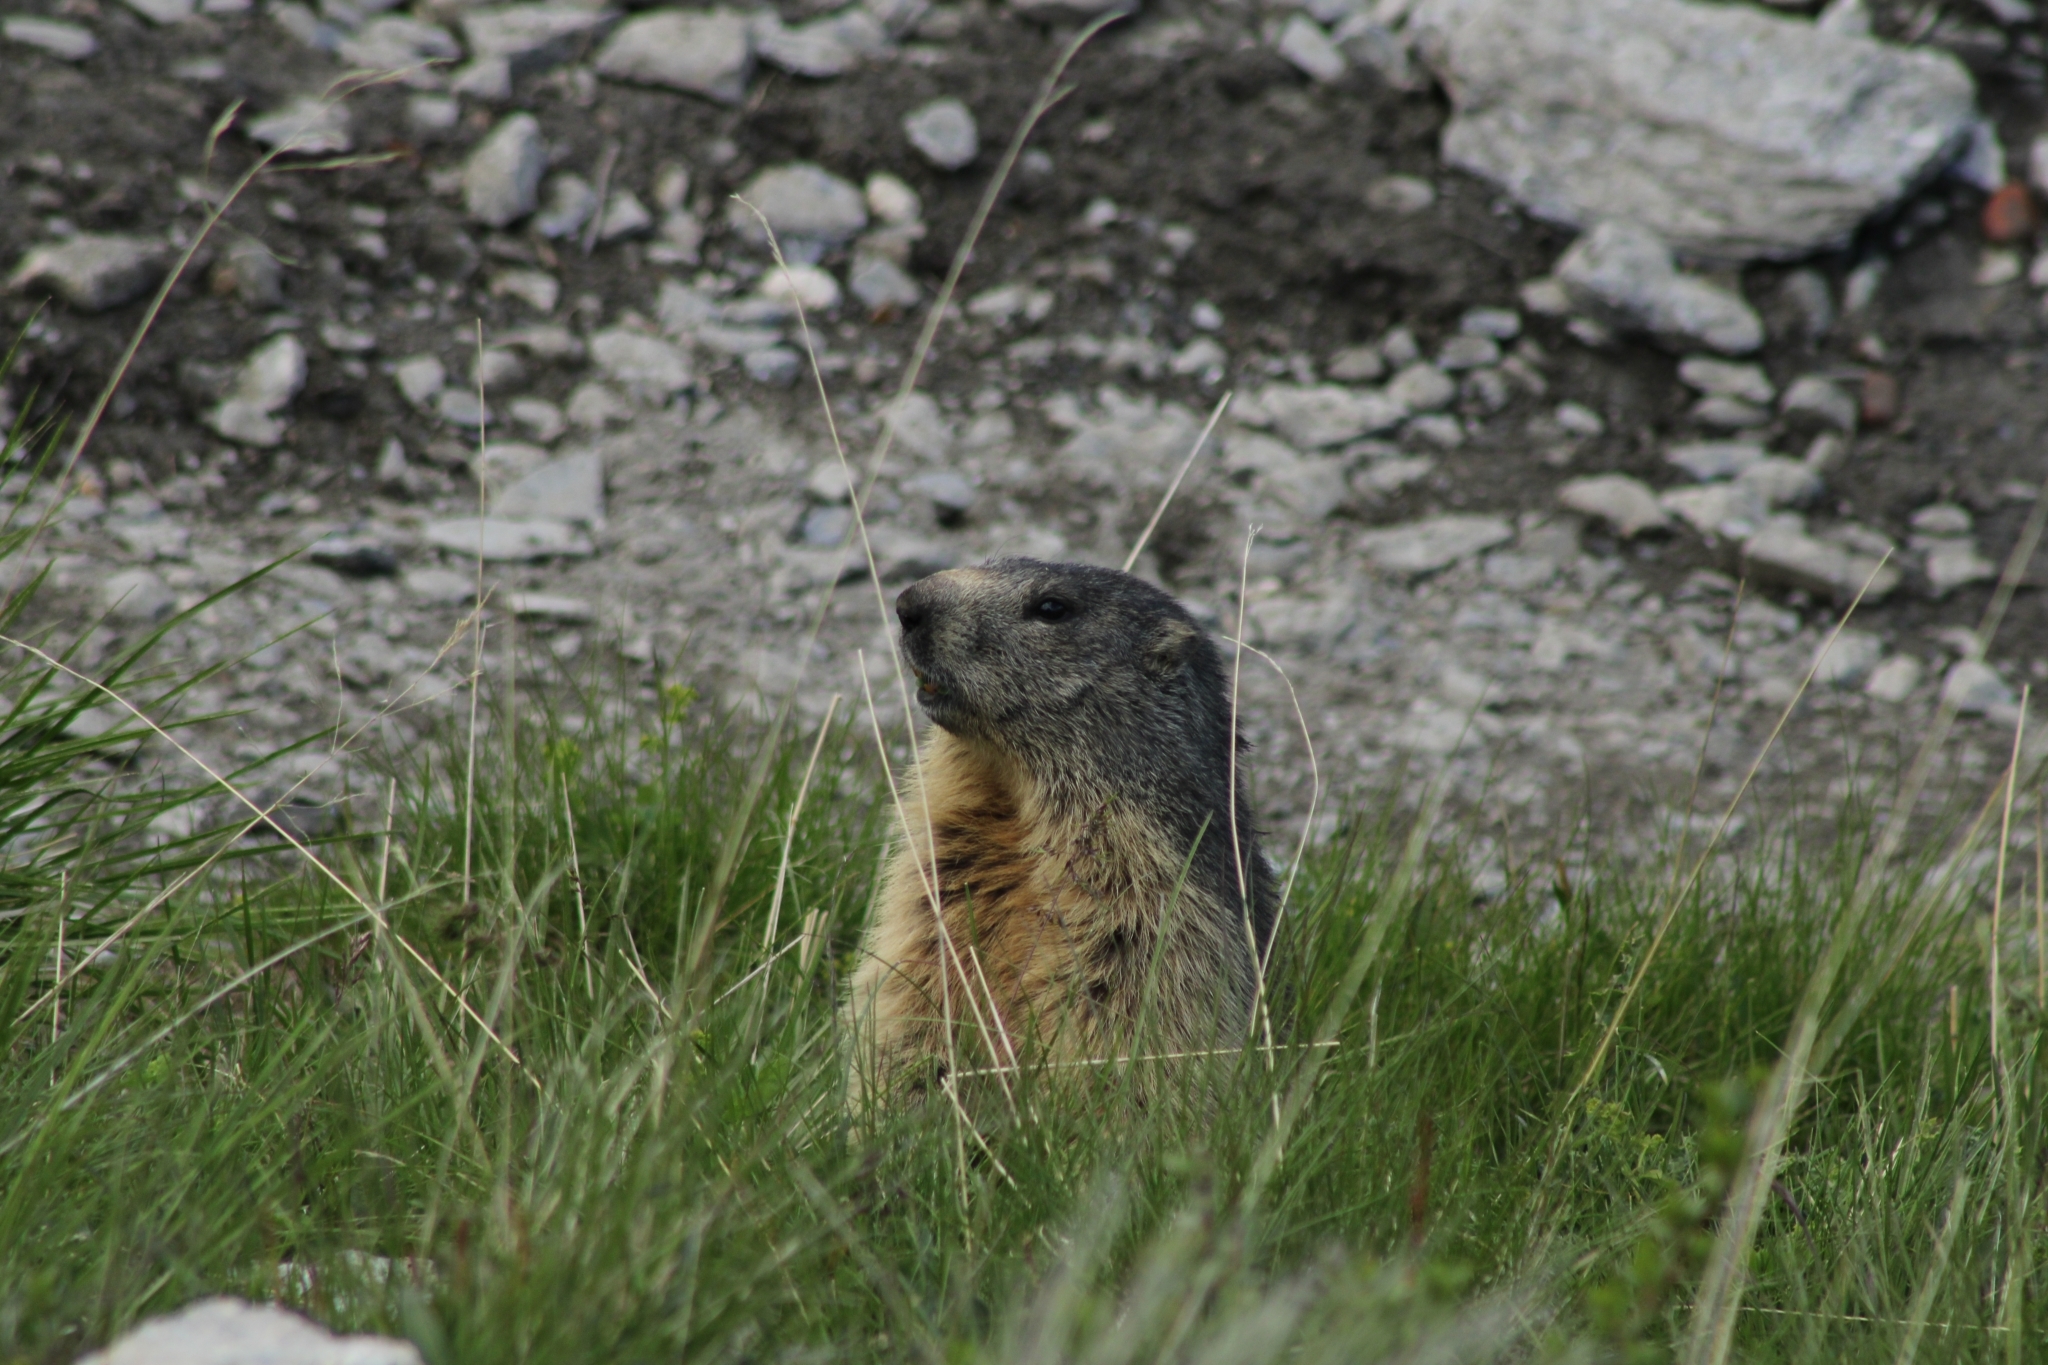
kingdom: Animalia
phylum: Chordata
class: Mammalia
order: Rodentia
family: Sciuridae
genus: Marmota
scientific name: Marmota marmota
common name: Alpine marmot
